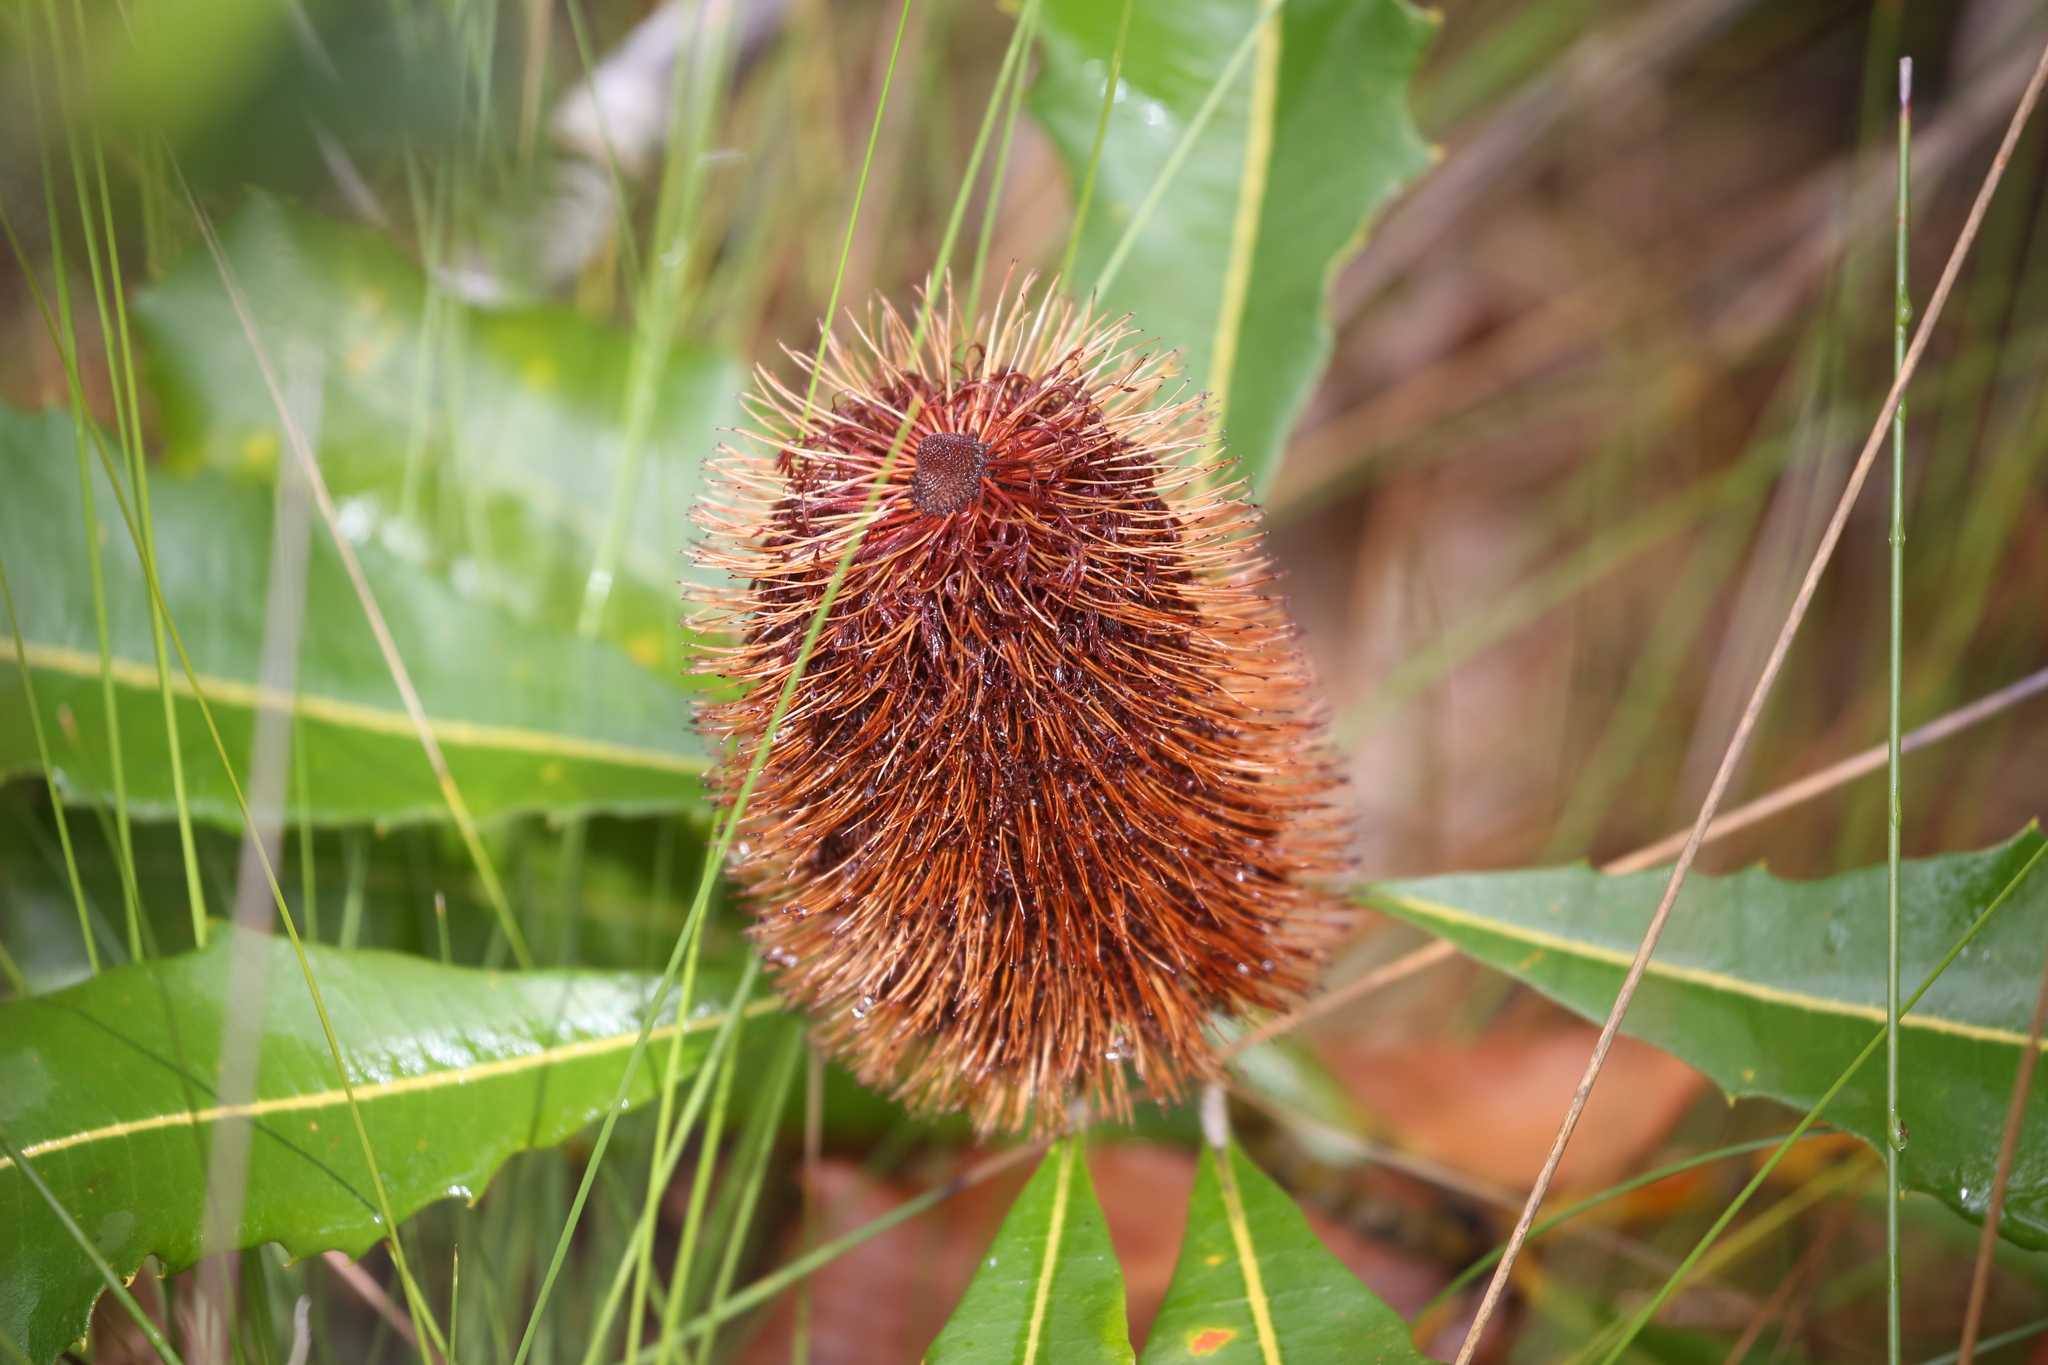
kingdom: Plantae
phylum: Tracheophyta
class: Magnoliopsida
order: Proteales
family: Proteaceae
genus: Banksia
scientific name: Banksia robur
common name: Broadleaf banksia
